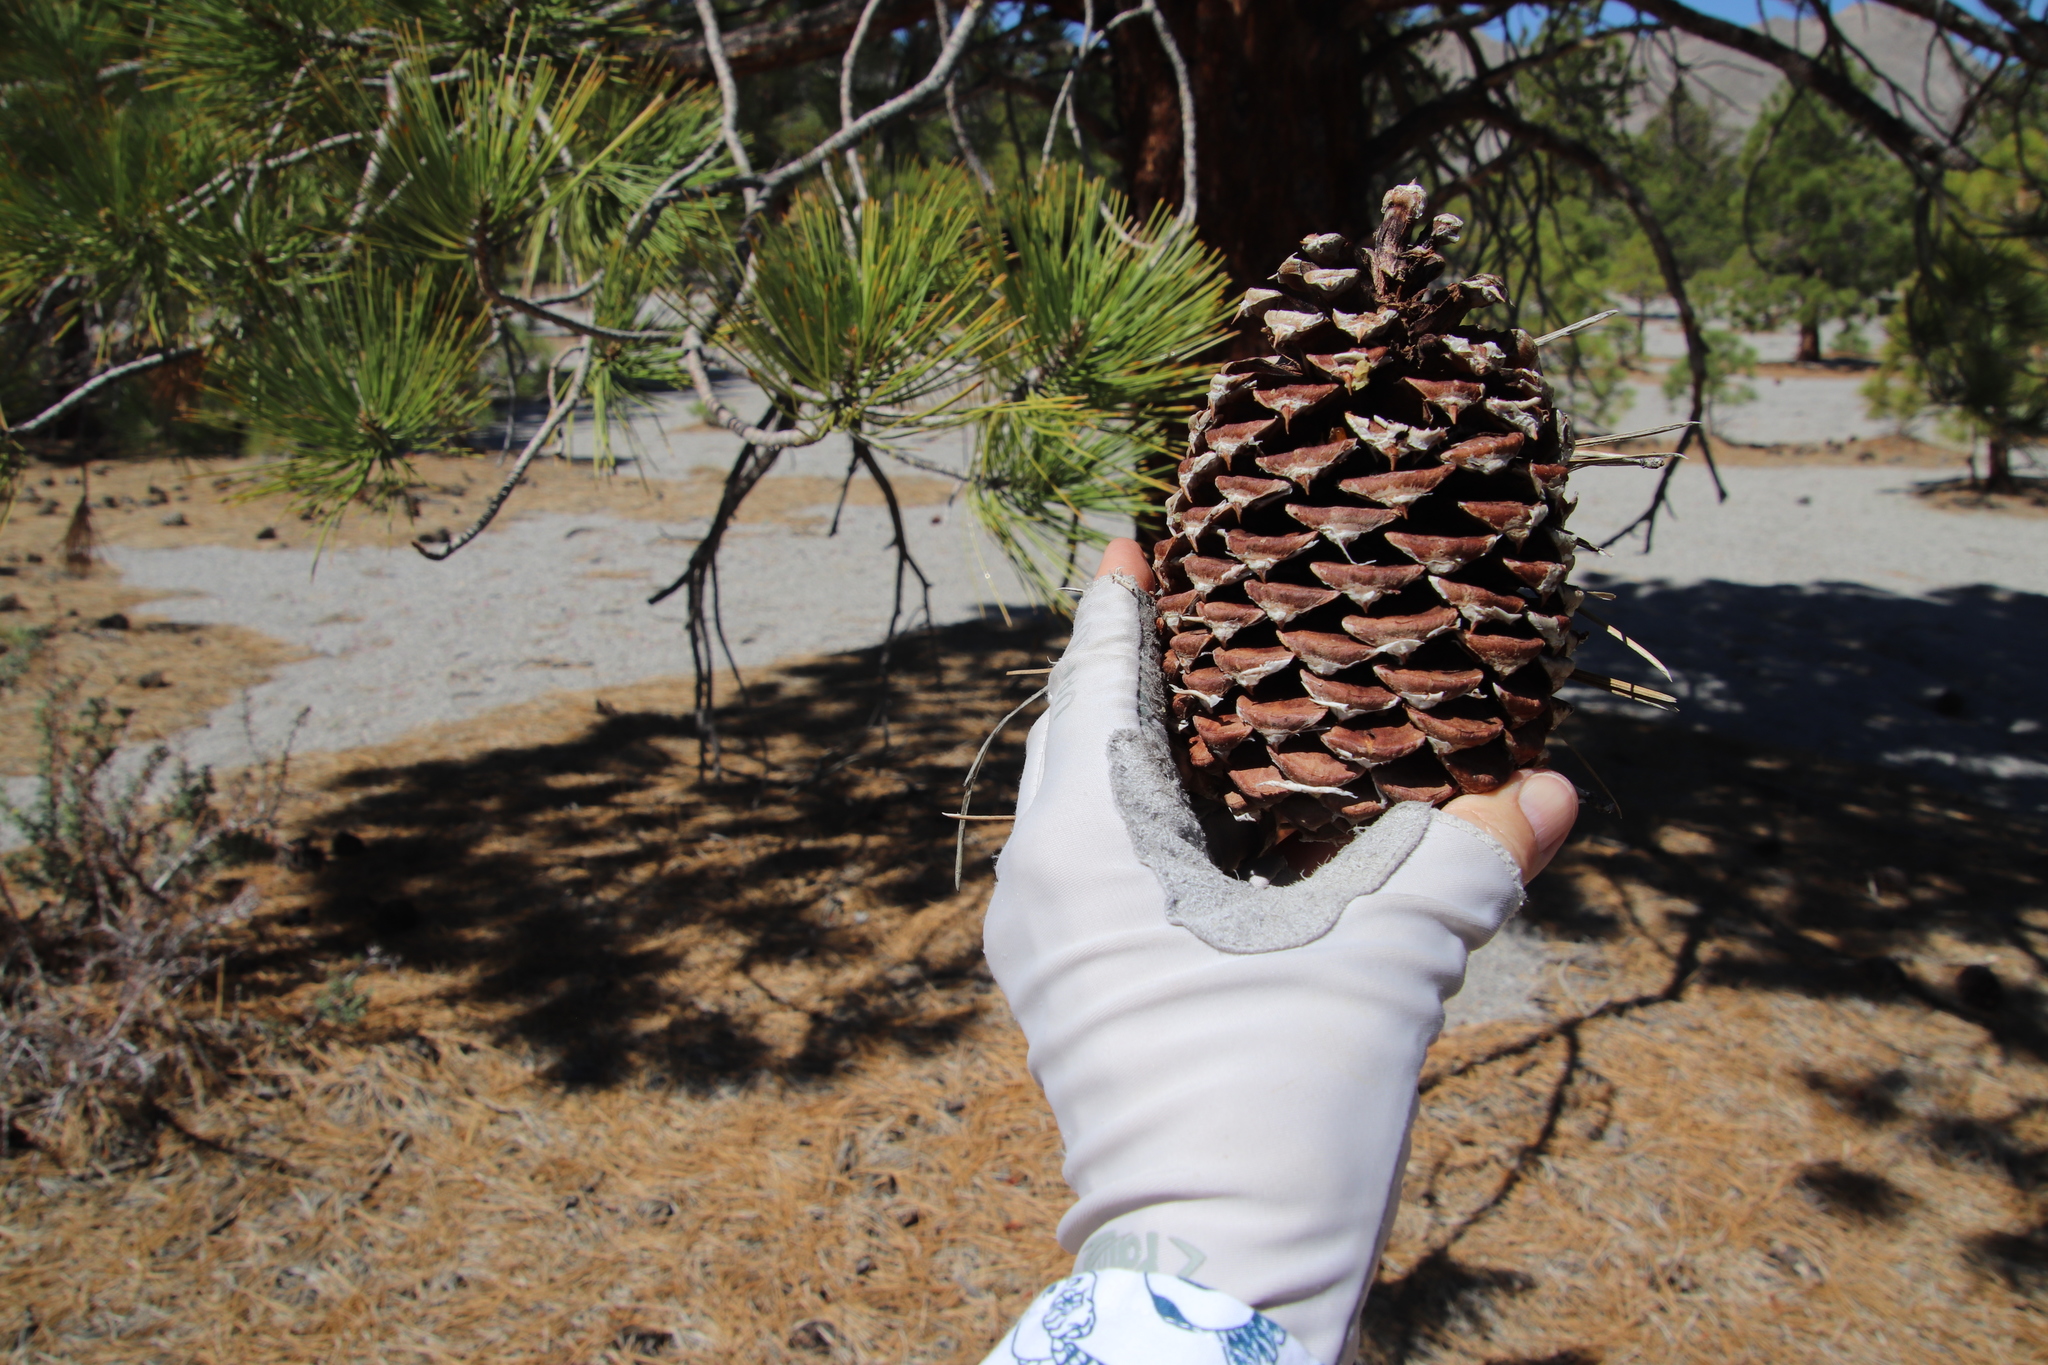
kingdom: Plantae
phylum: Tracheophyta
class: Pinopsida
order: Pinales
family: Pinaceae
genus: Pinus
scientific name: Pinus jeffreyi
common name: Jeffrey pine
